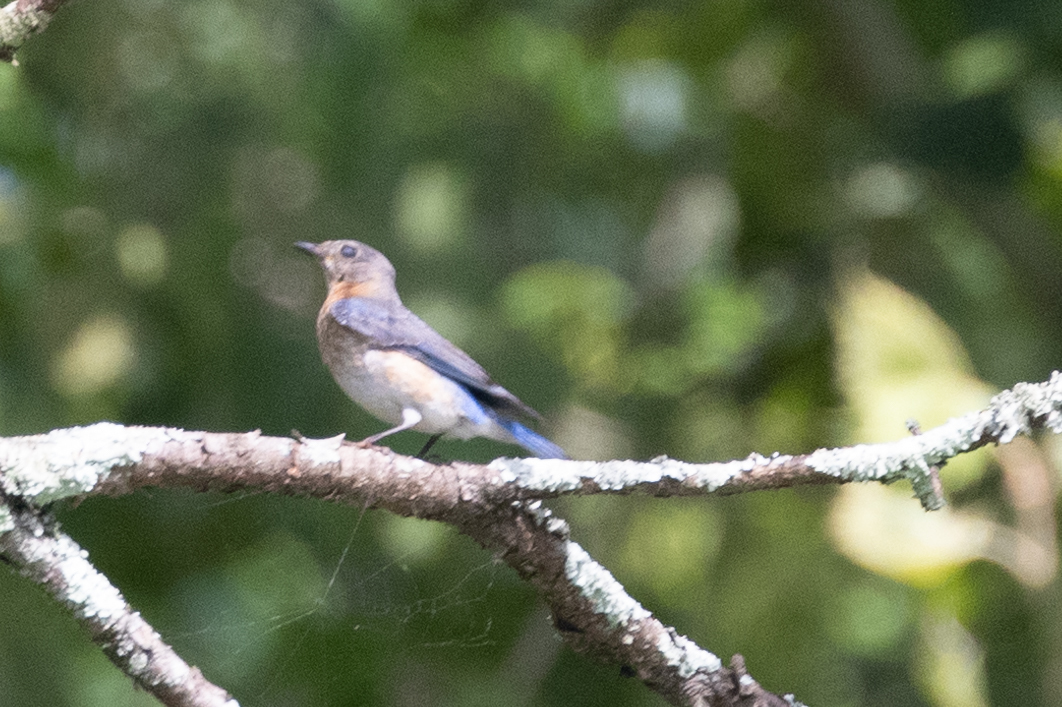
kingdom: Animalia
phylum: Chordata
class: Aves
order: Passeriformes
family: Turdidae
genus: Sialia
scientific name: Sialia sialis
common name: Eastern bluebird
